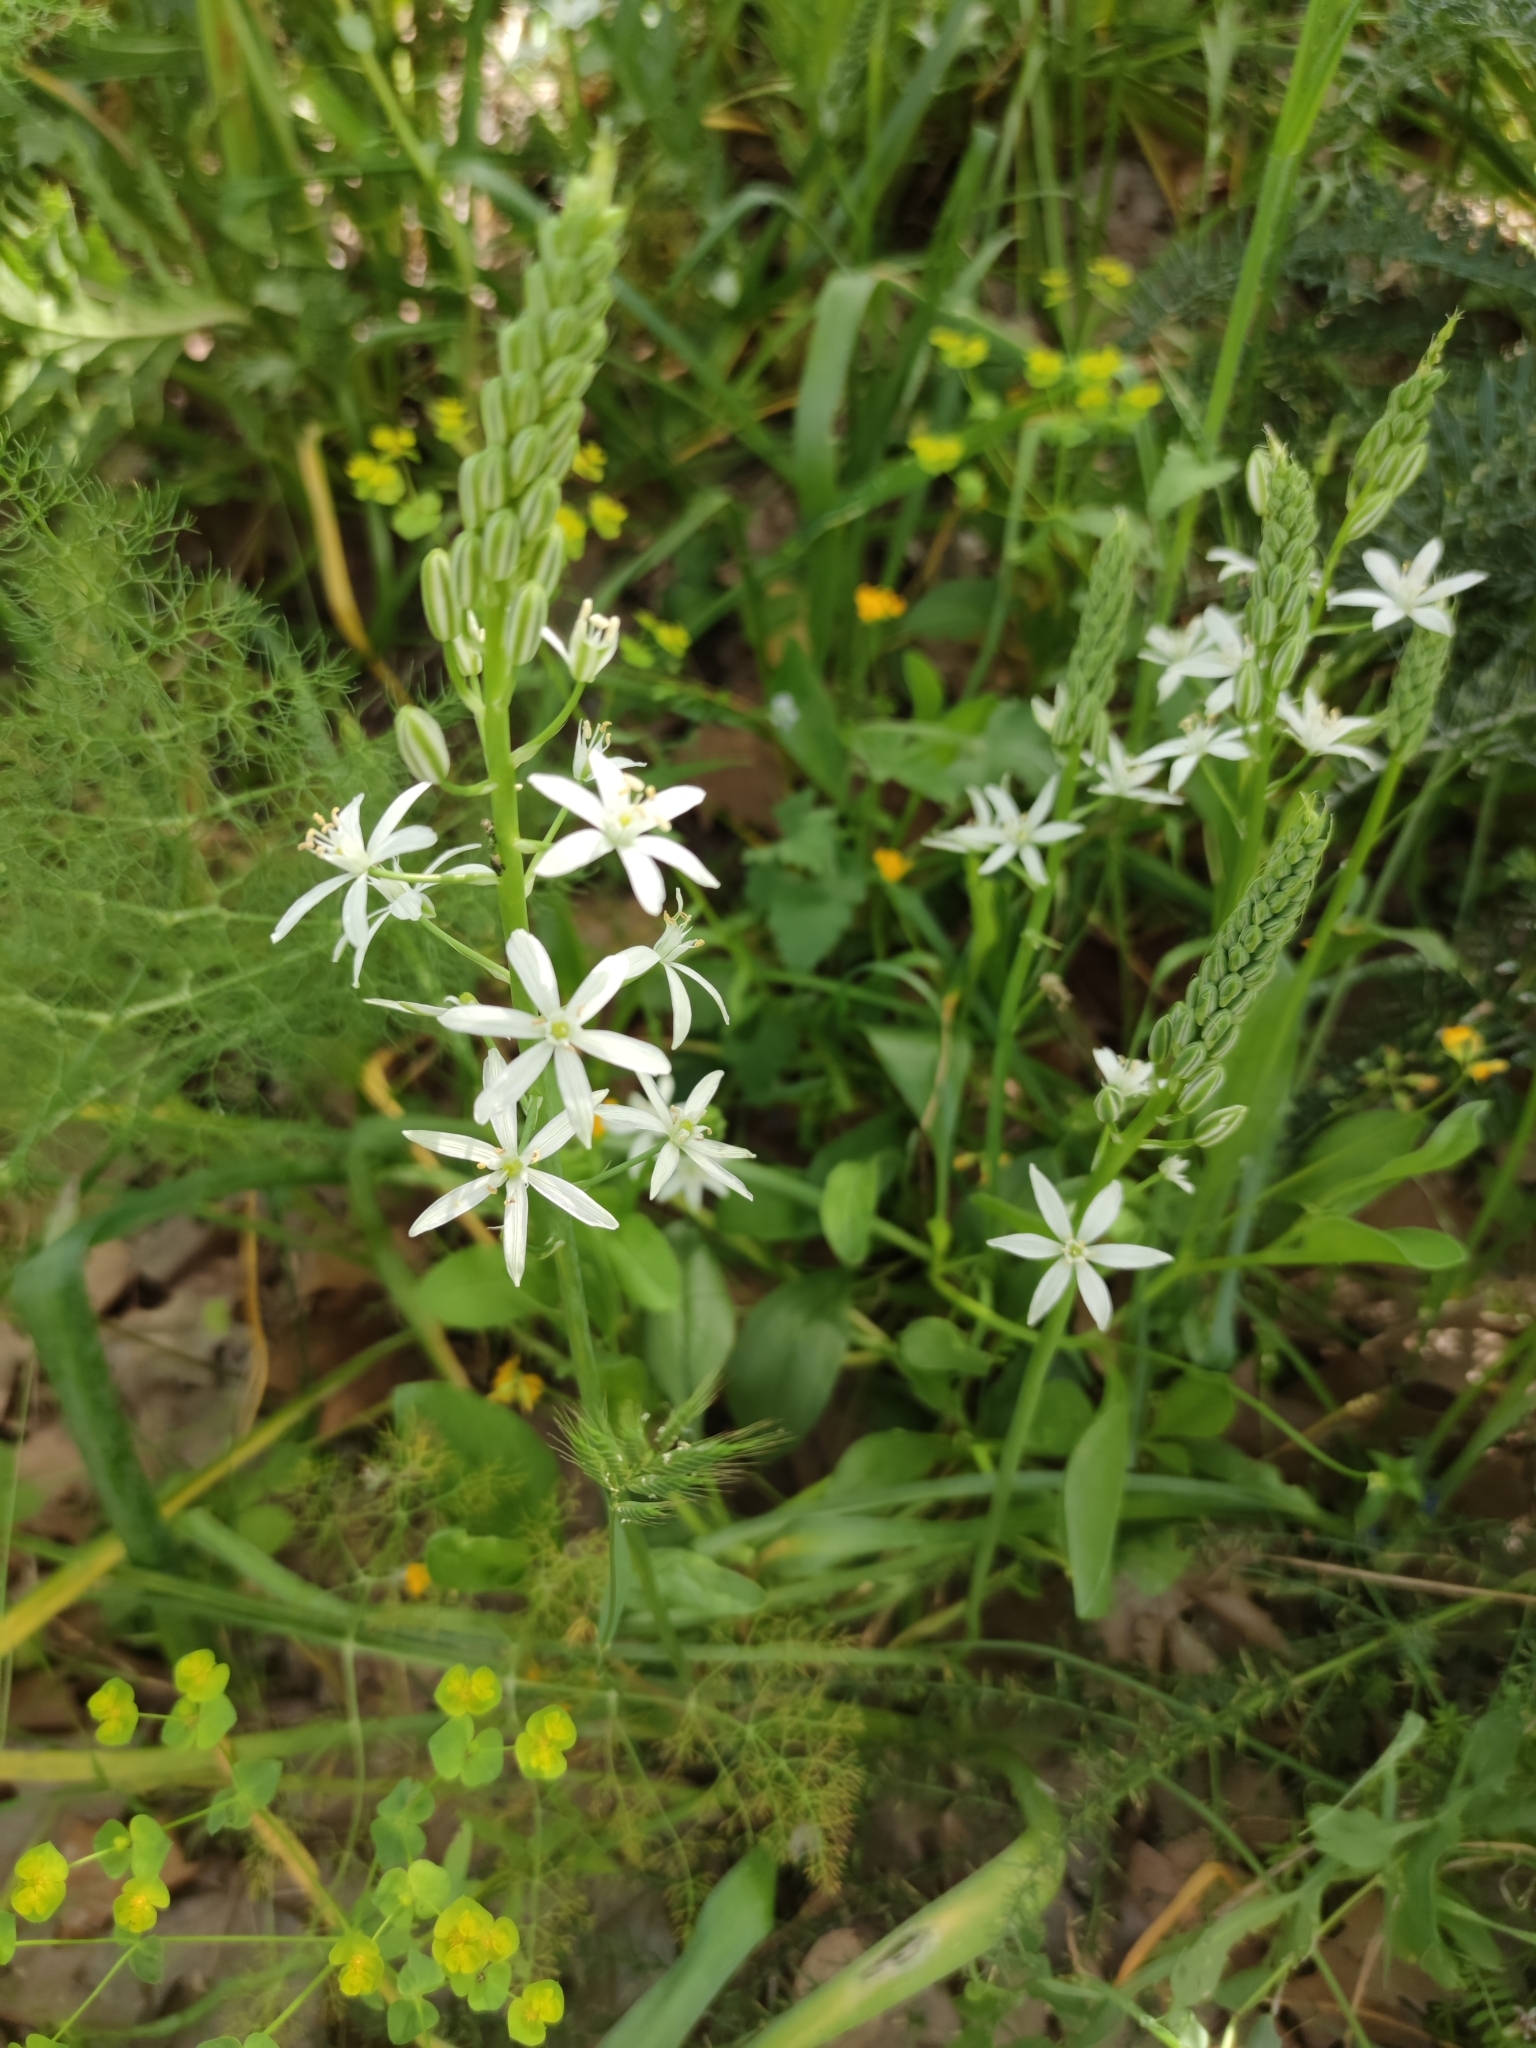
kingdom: Plantae
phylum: Tracheophyta
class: Liliopsida
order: Asparagales
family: Asparagaceae
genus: Ornithogalum
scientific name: Ornithogalum narbonense
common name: Bath-asparagus
